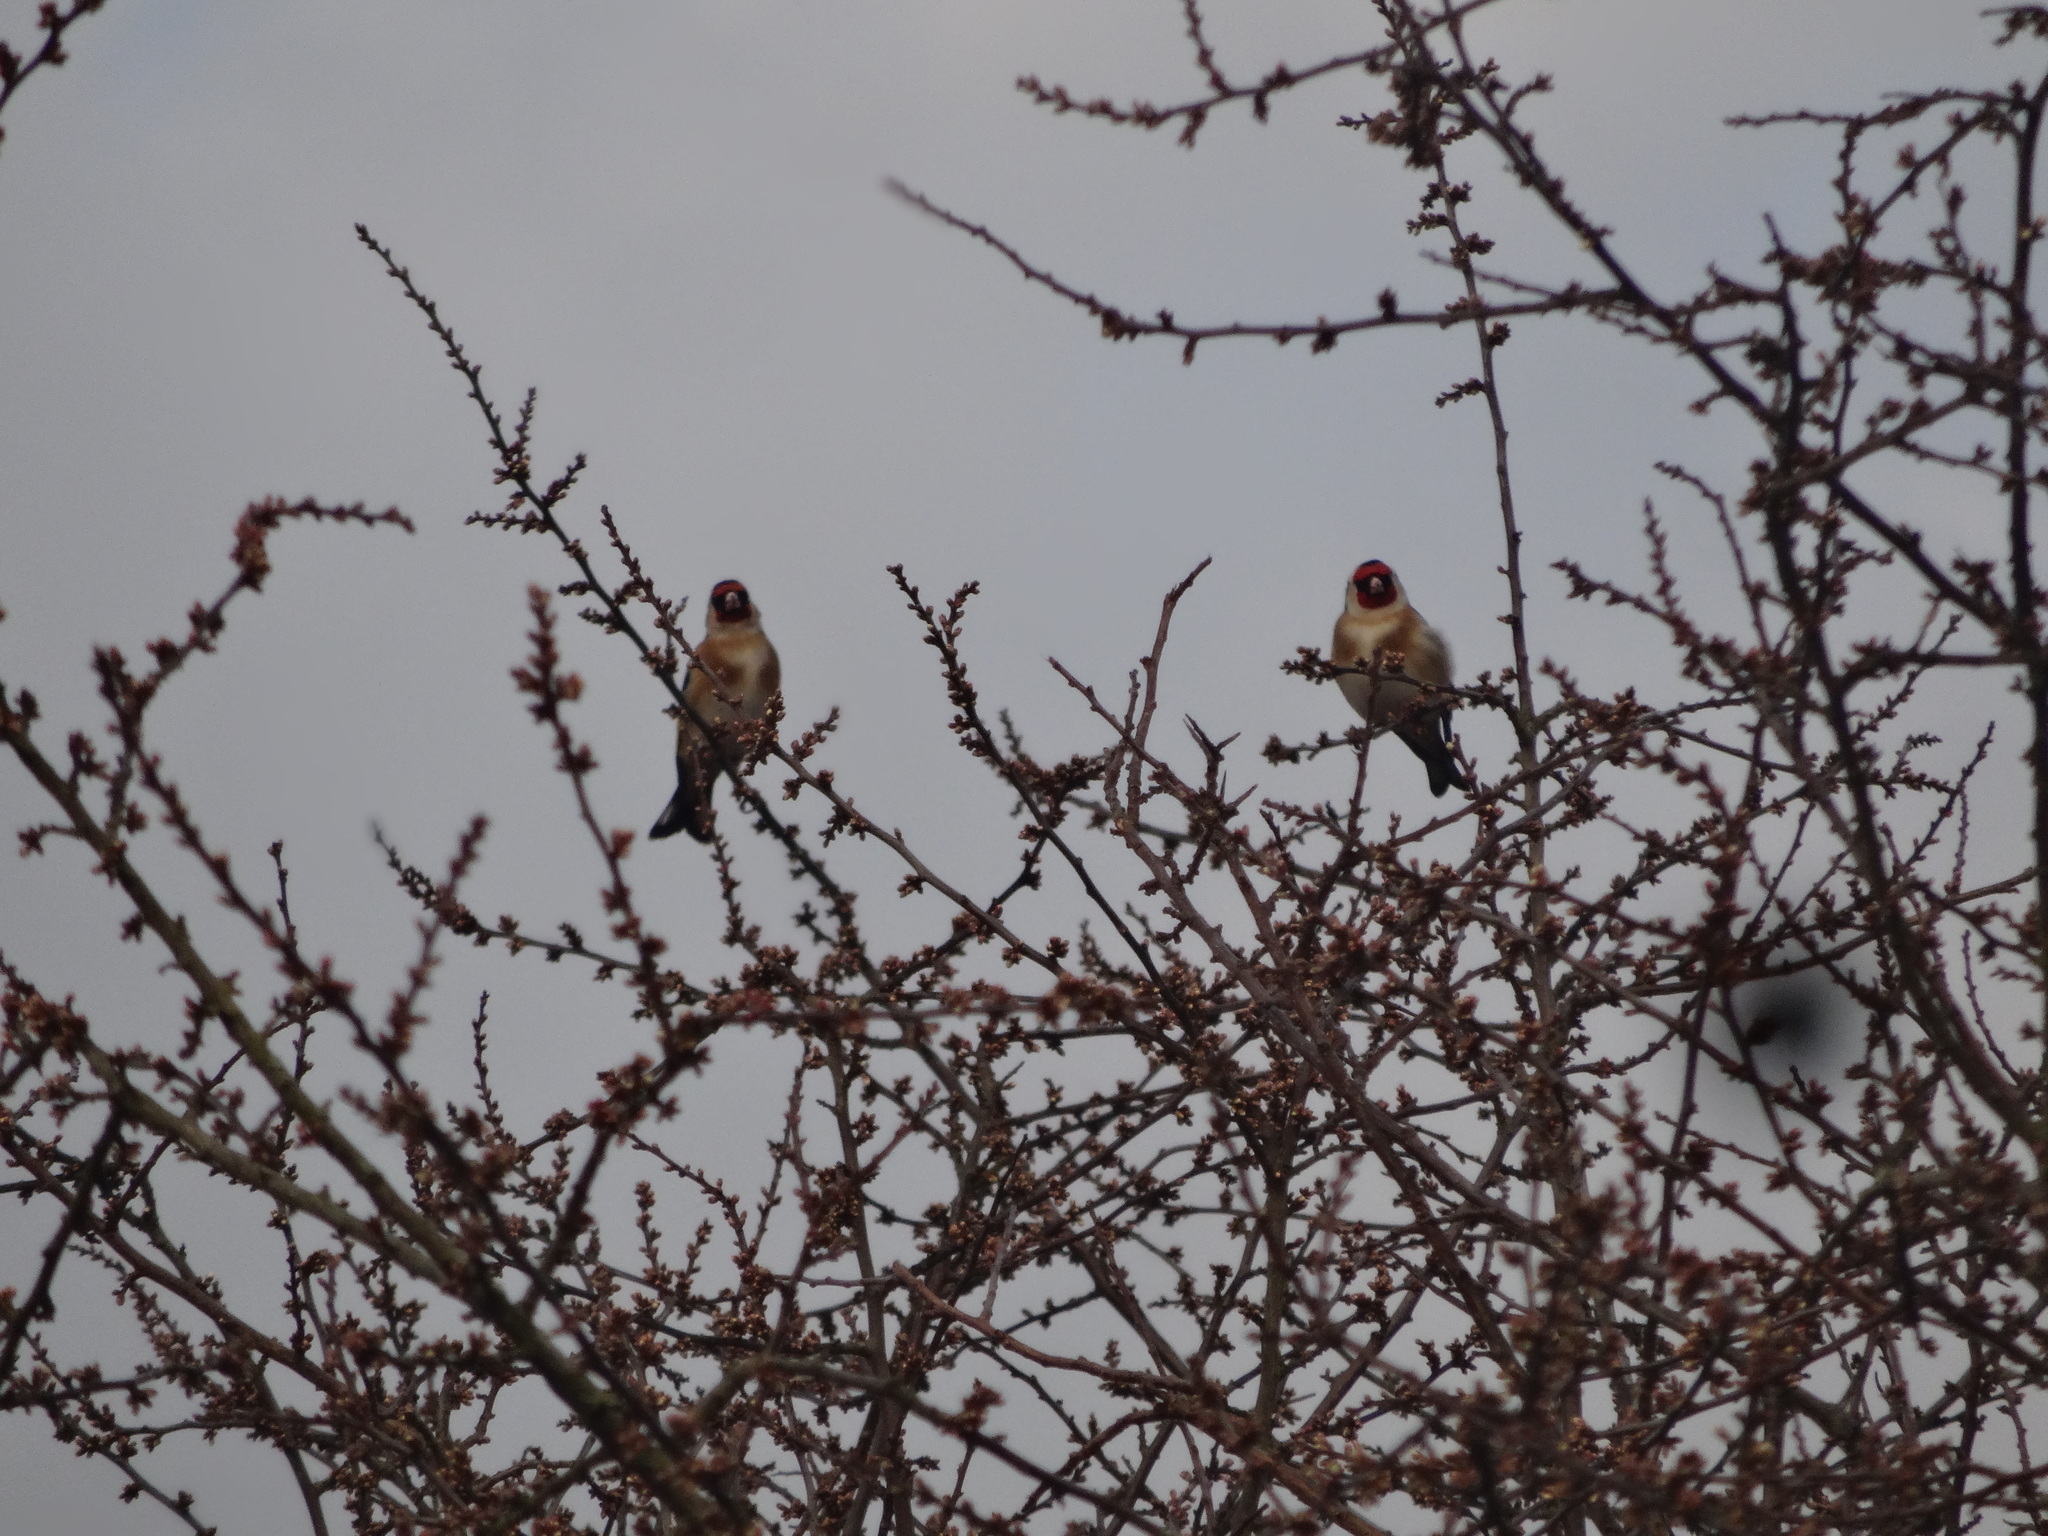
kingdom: Animalia
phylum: Chordata
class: Aves
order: Passeriformes
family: Fringillidae
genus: Carduelis
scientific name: Carduelis carduelis
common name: European goldfinch
